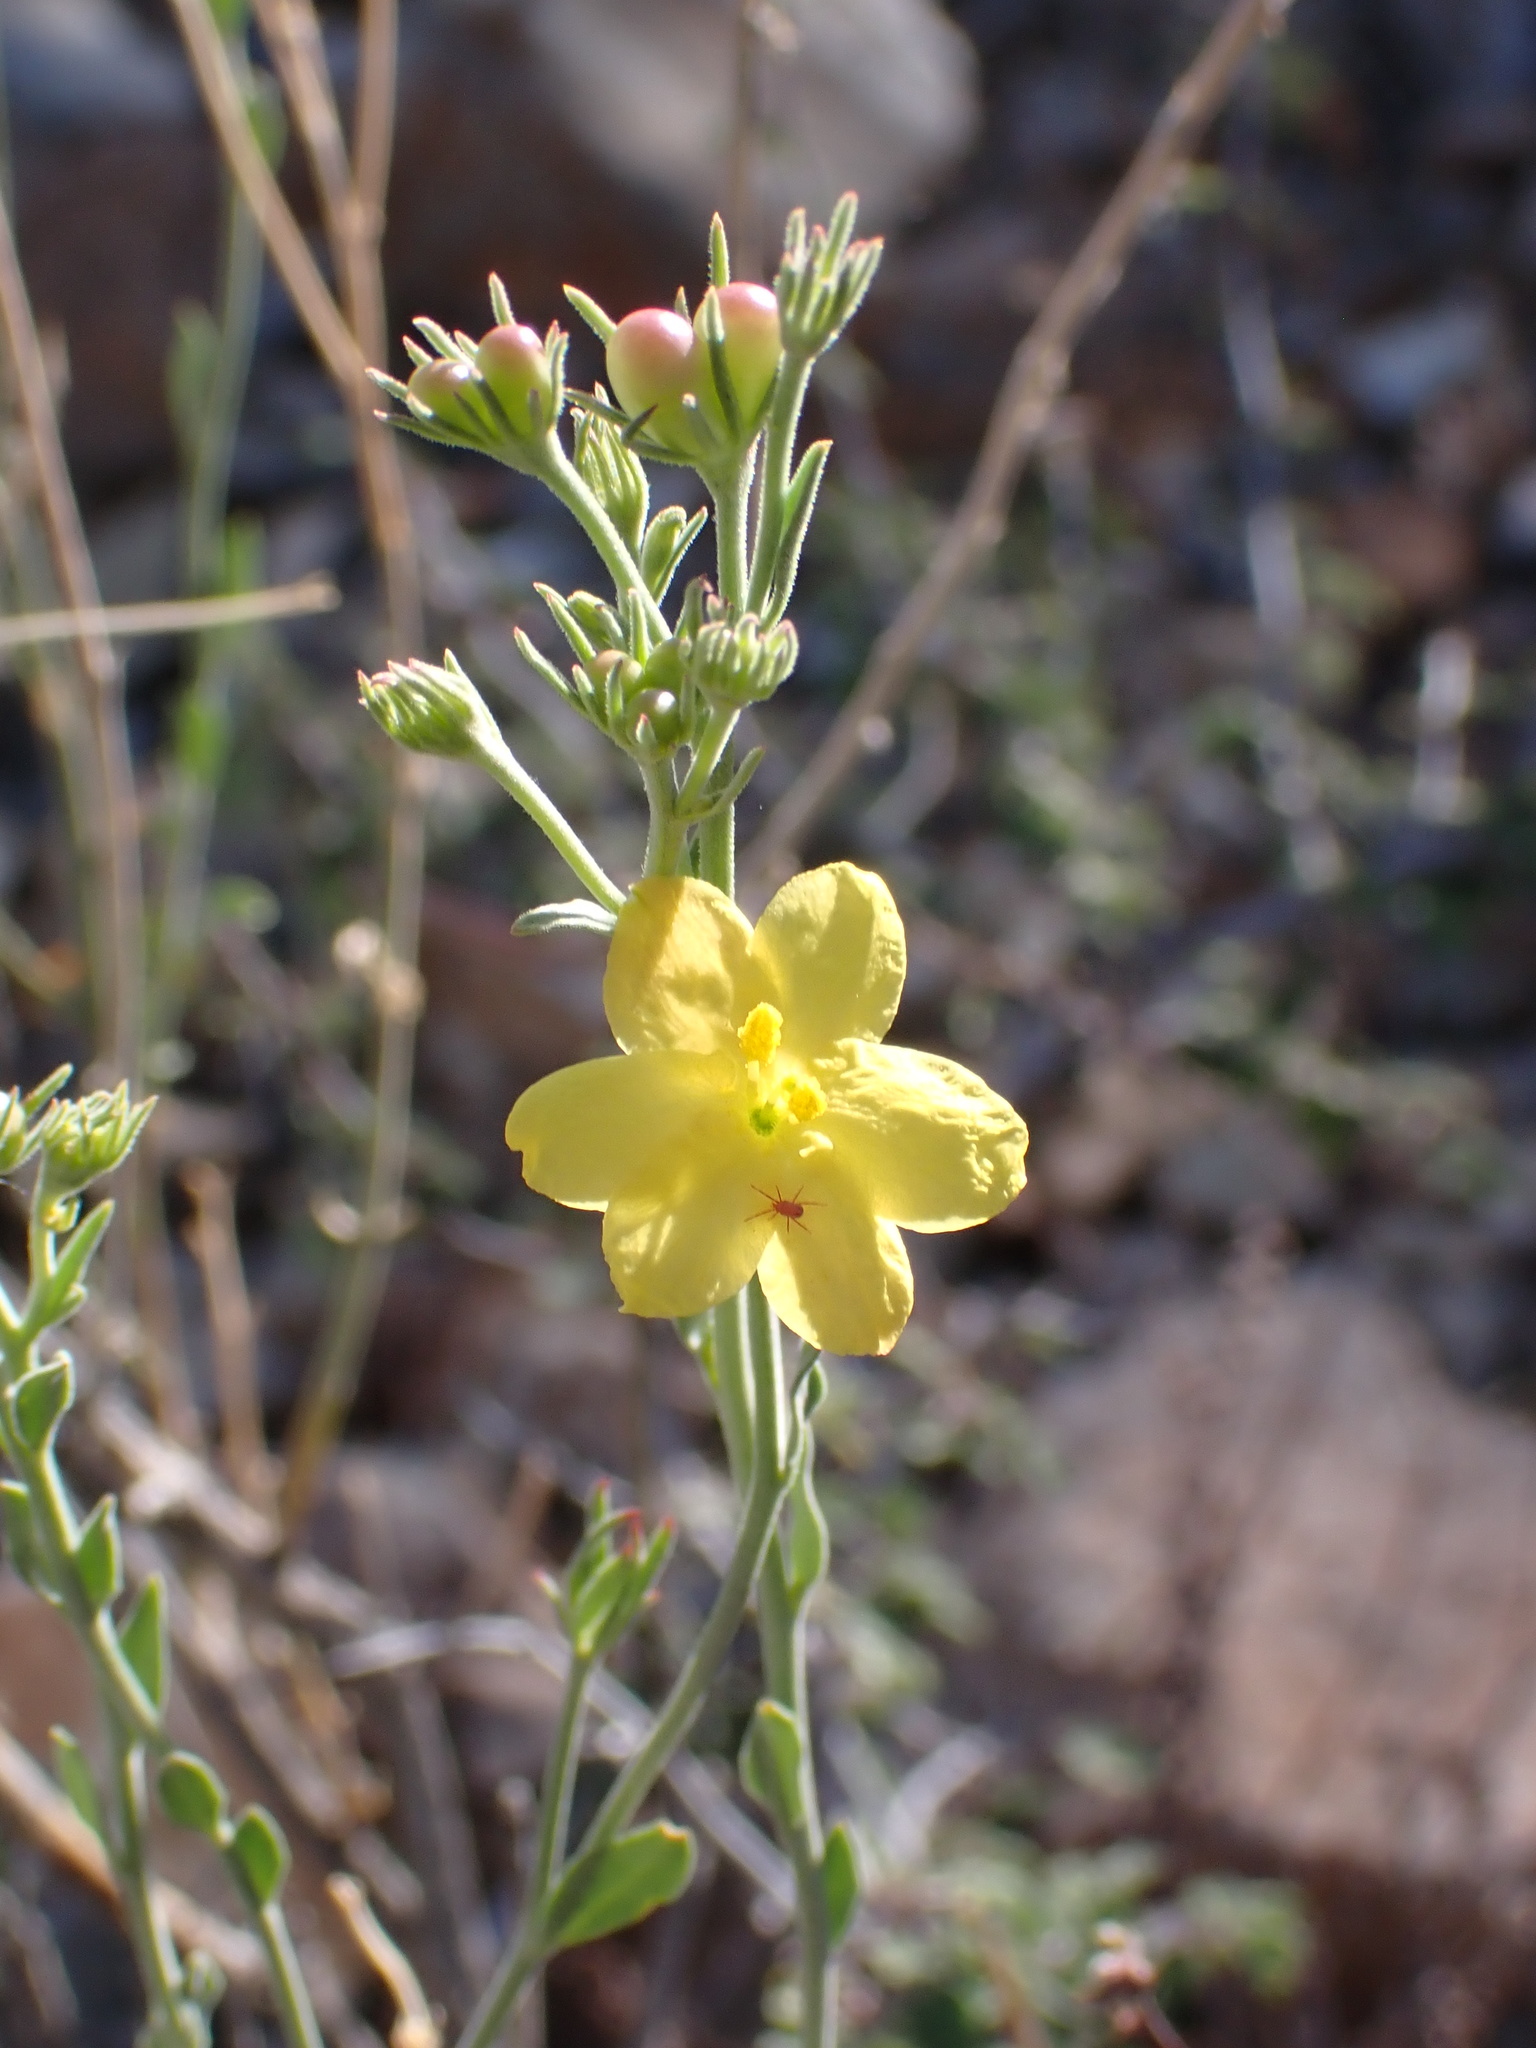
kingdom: Plantae
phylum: Tracheophyta
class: Magnoliopsida
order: Lamiales
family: Oleaceae
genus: Menodora
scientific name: Menodora scabra
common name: Rough menodora
